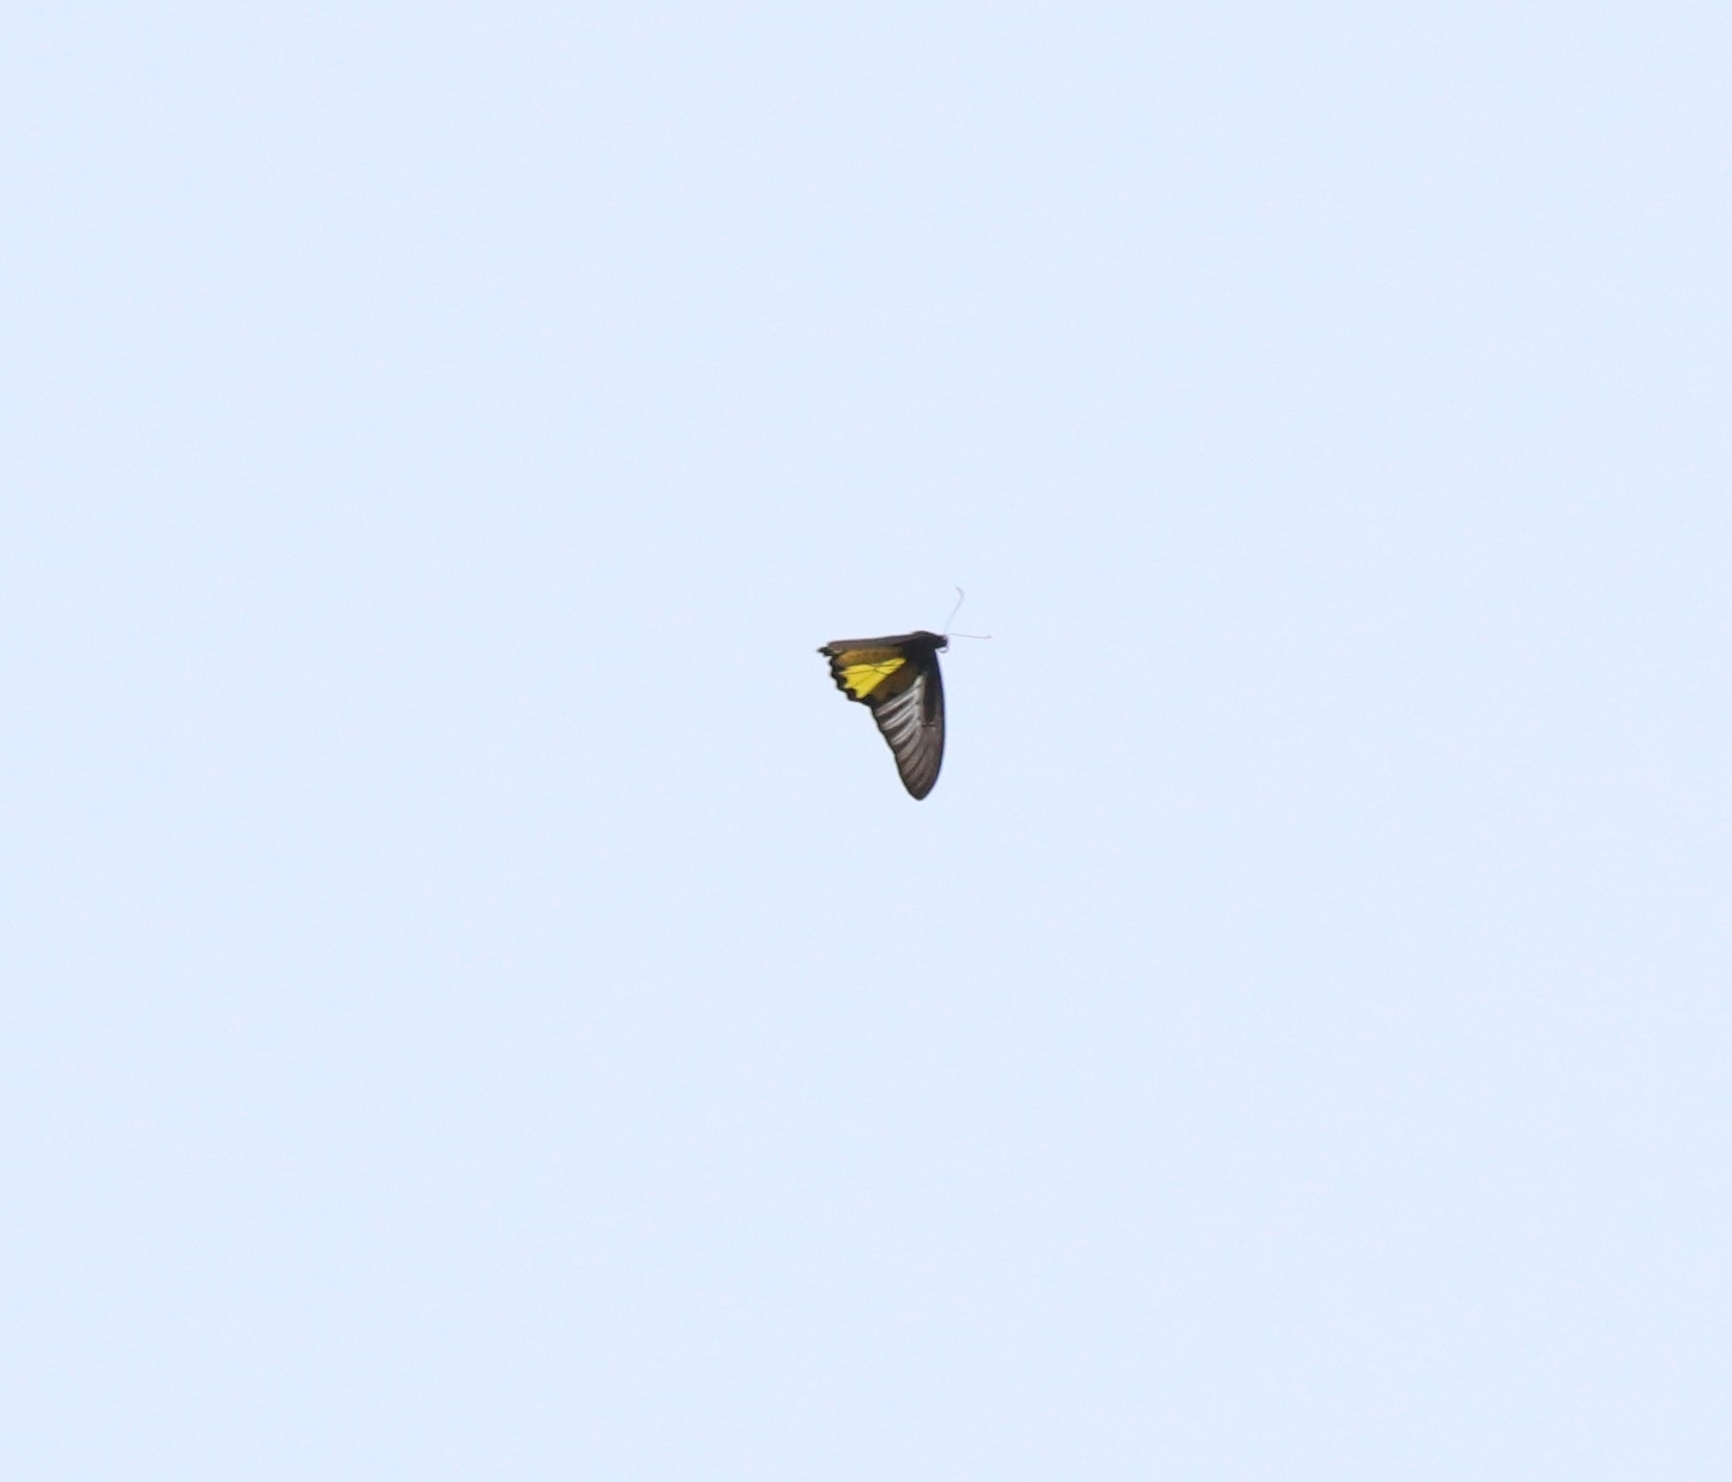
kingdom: Animalia
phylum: Arthropoda
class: Insecta
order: Lepidoptera
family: Papilionidae
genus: Troides
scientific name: Troides minos
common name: Malabar birdwing
